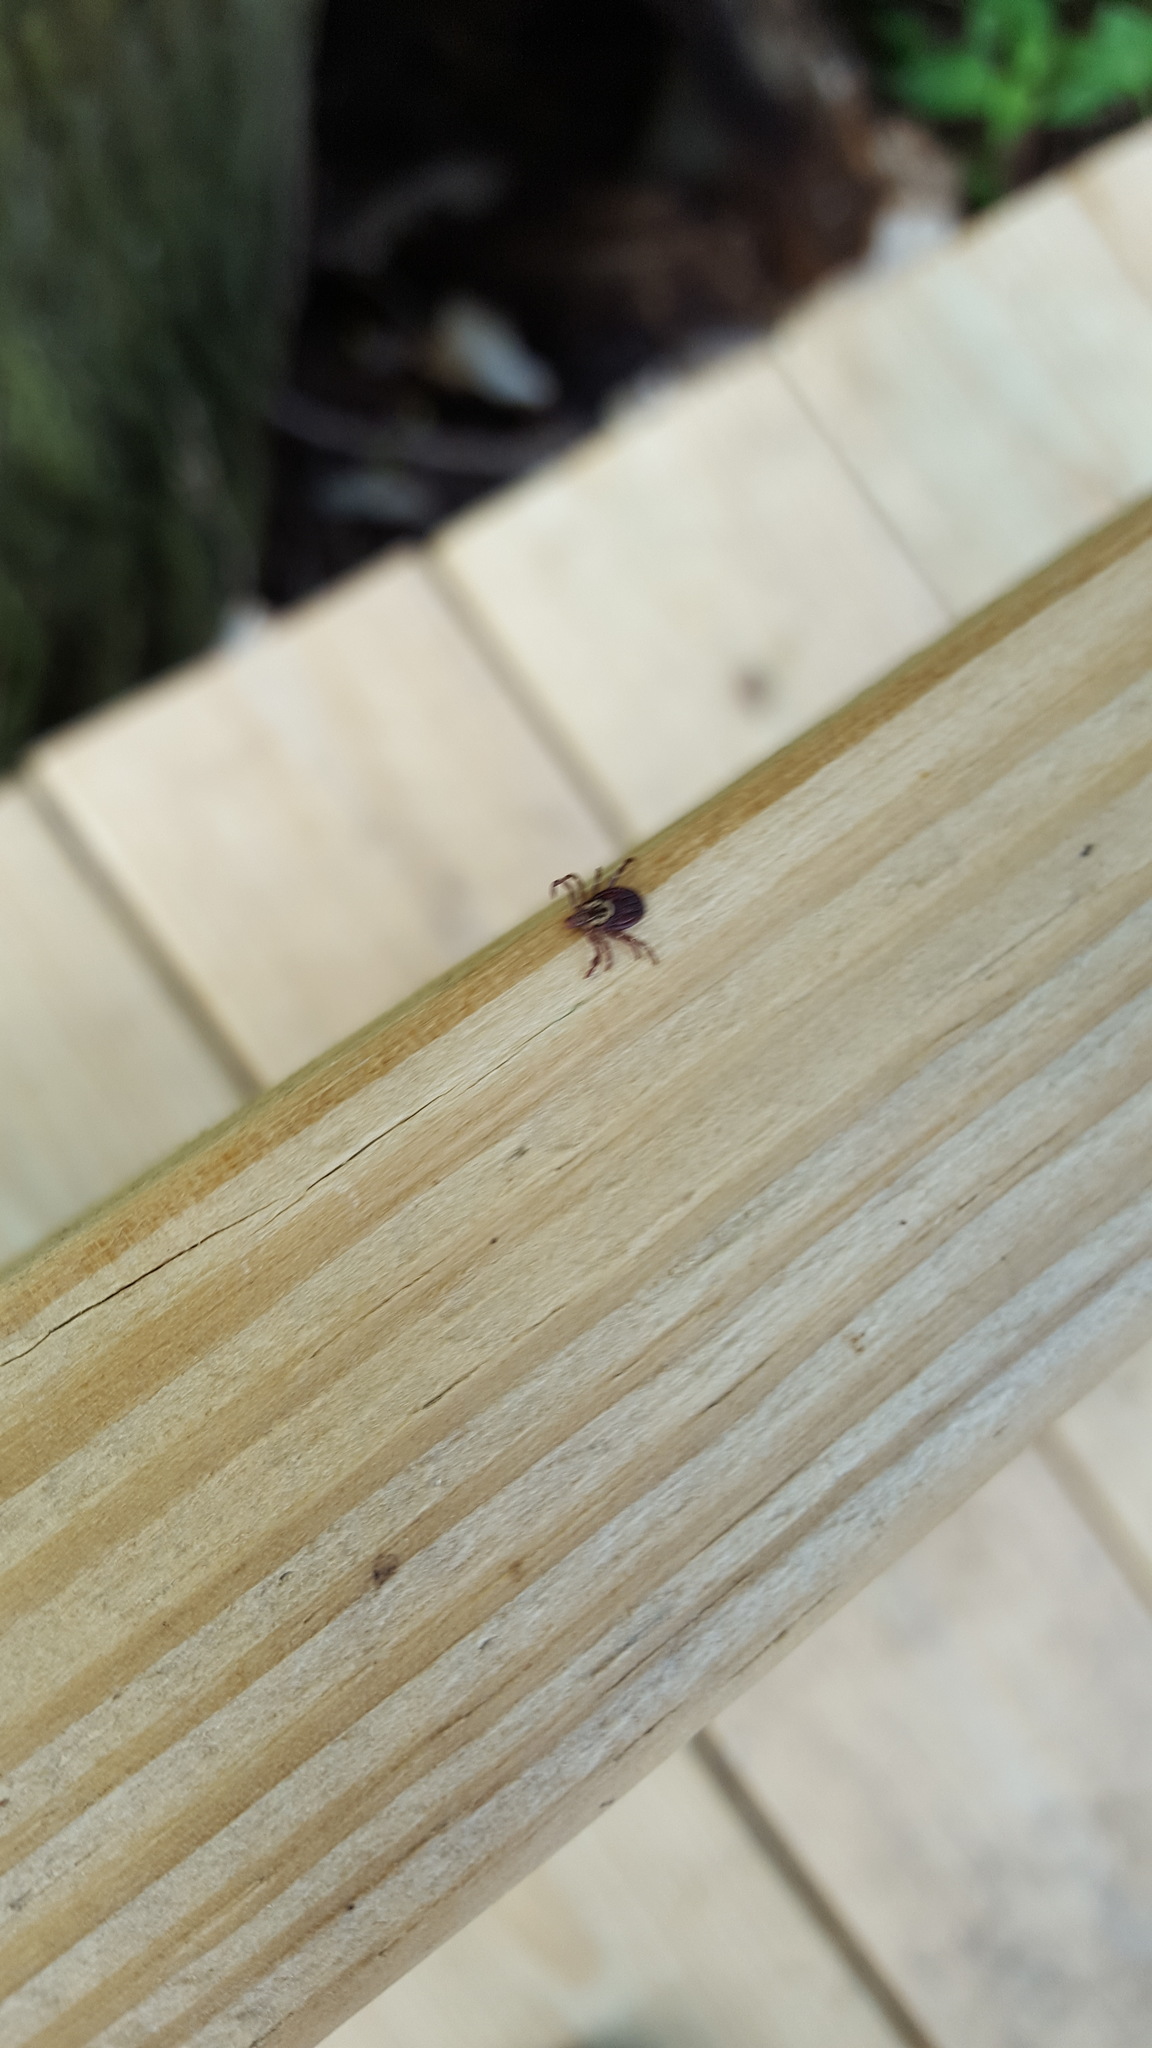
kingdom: Animalia
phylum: Arthropoda
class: Arachnida
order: Ixodida
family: Ixodidae
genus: Dermacentor
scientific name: Dermacentor variabilis
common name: American dog tick
